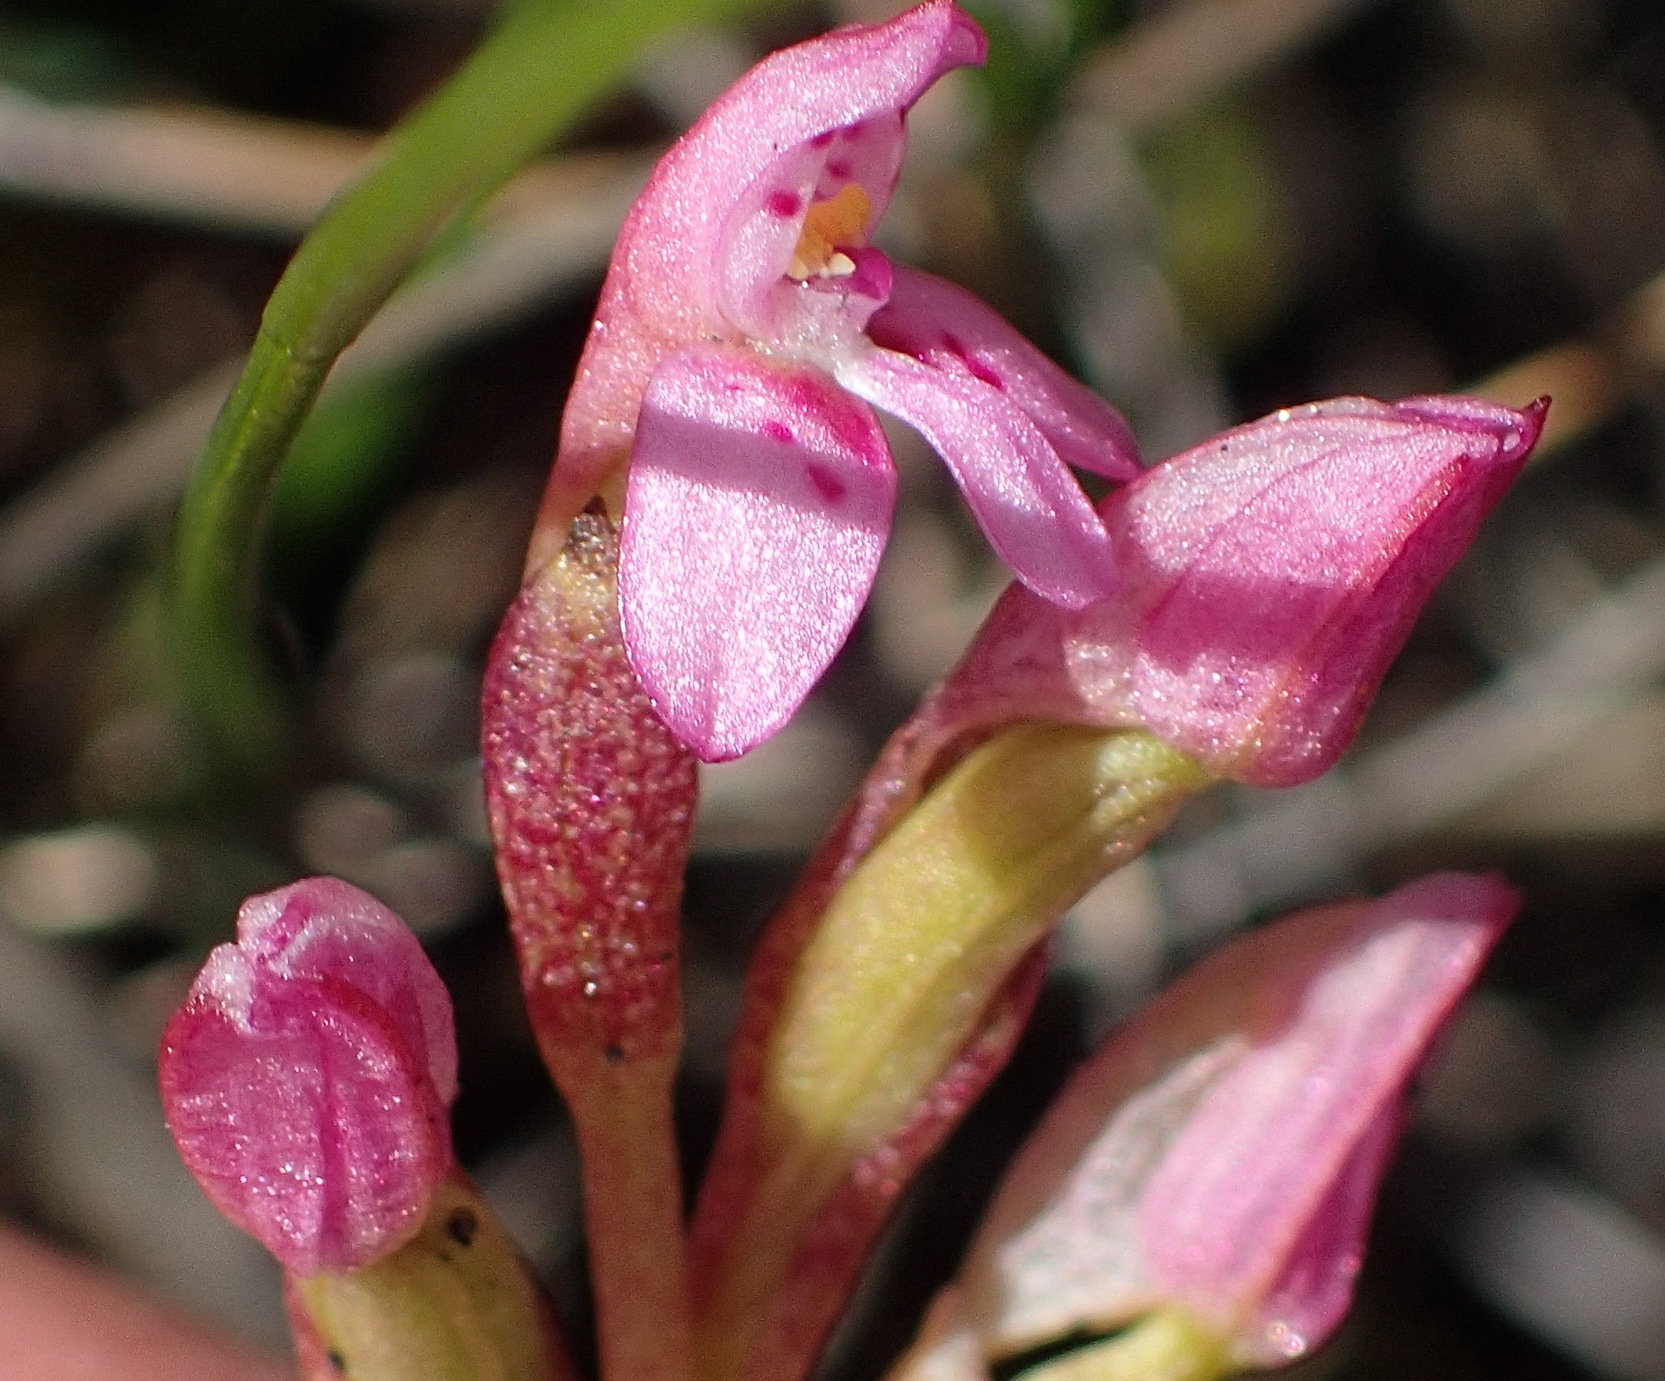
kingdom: Plantae
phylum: Tracheophyta
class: Liliopsida
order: Asparagales
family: Orchidaceae
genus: Disa
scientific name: Disa vaginata
